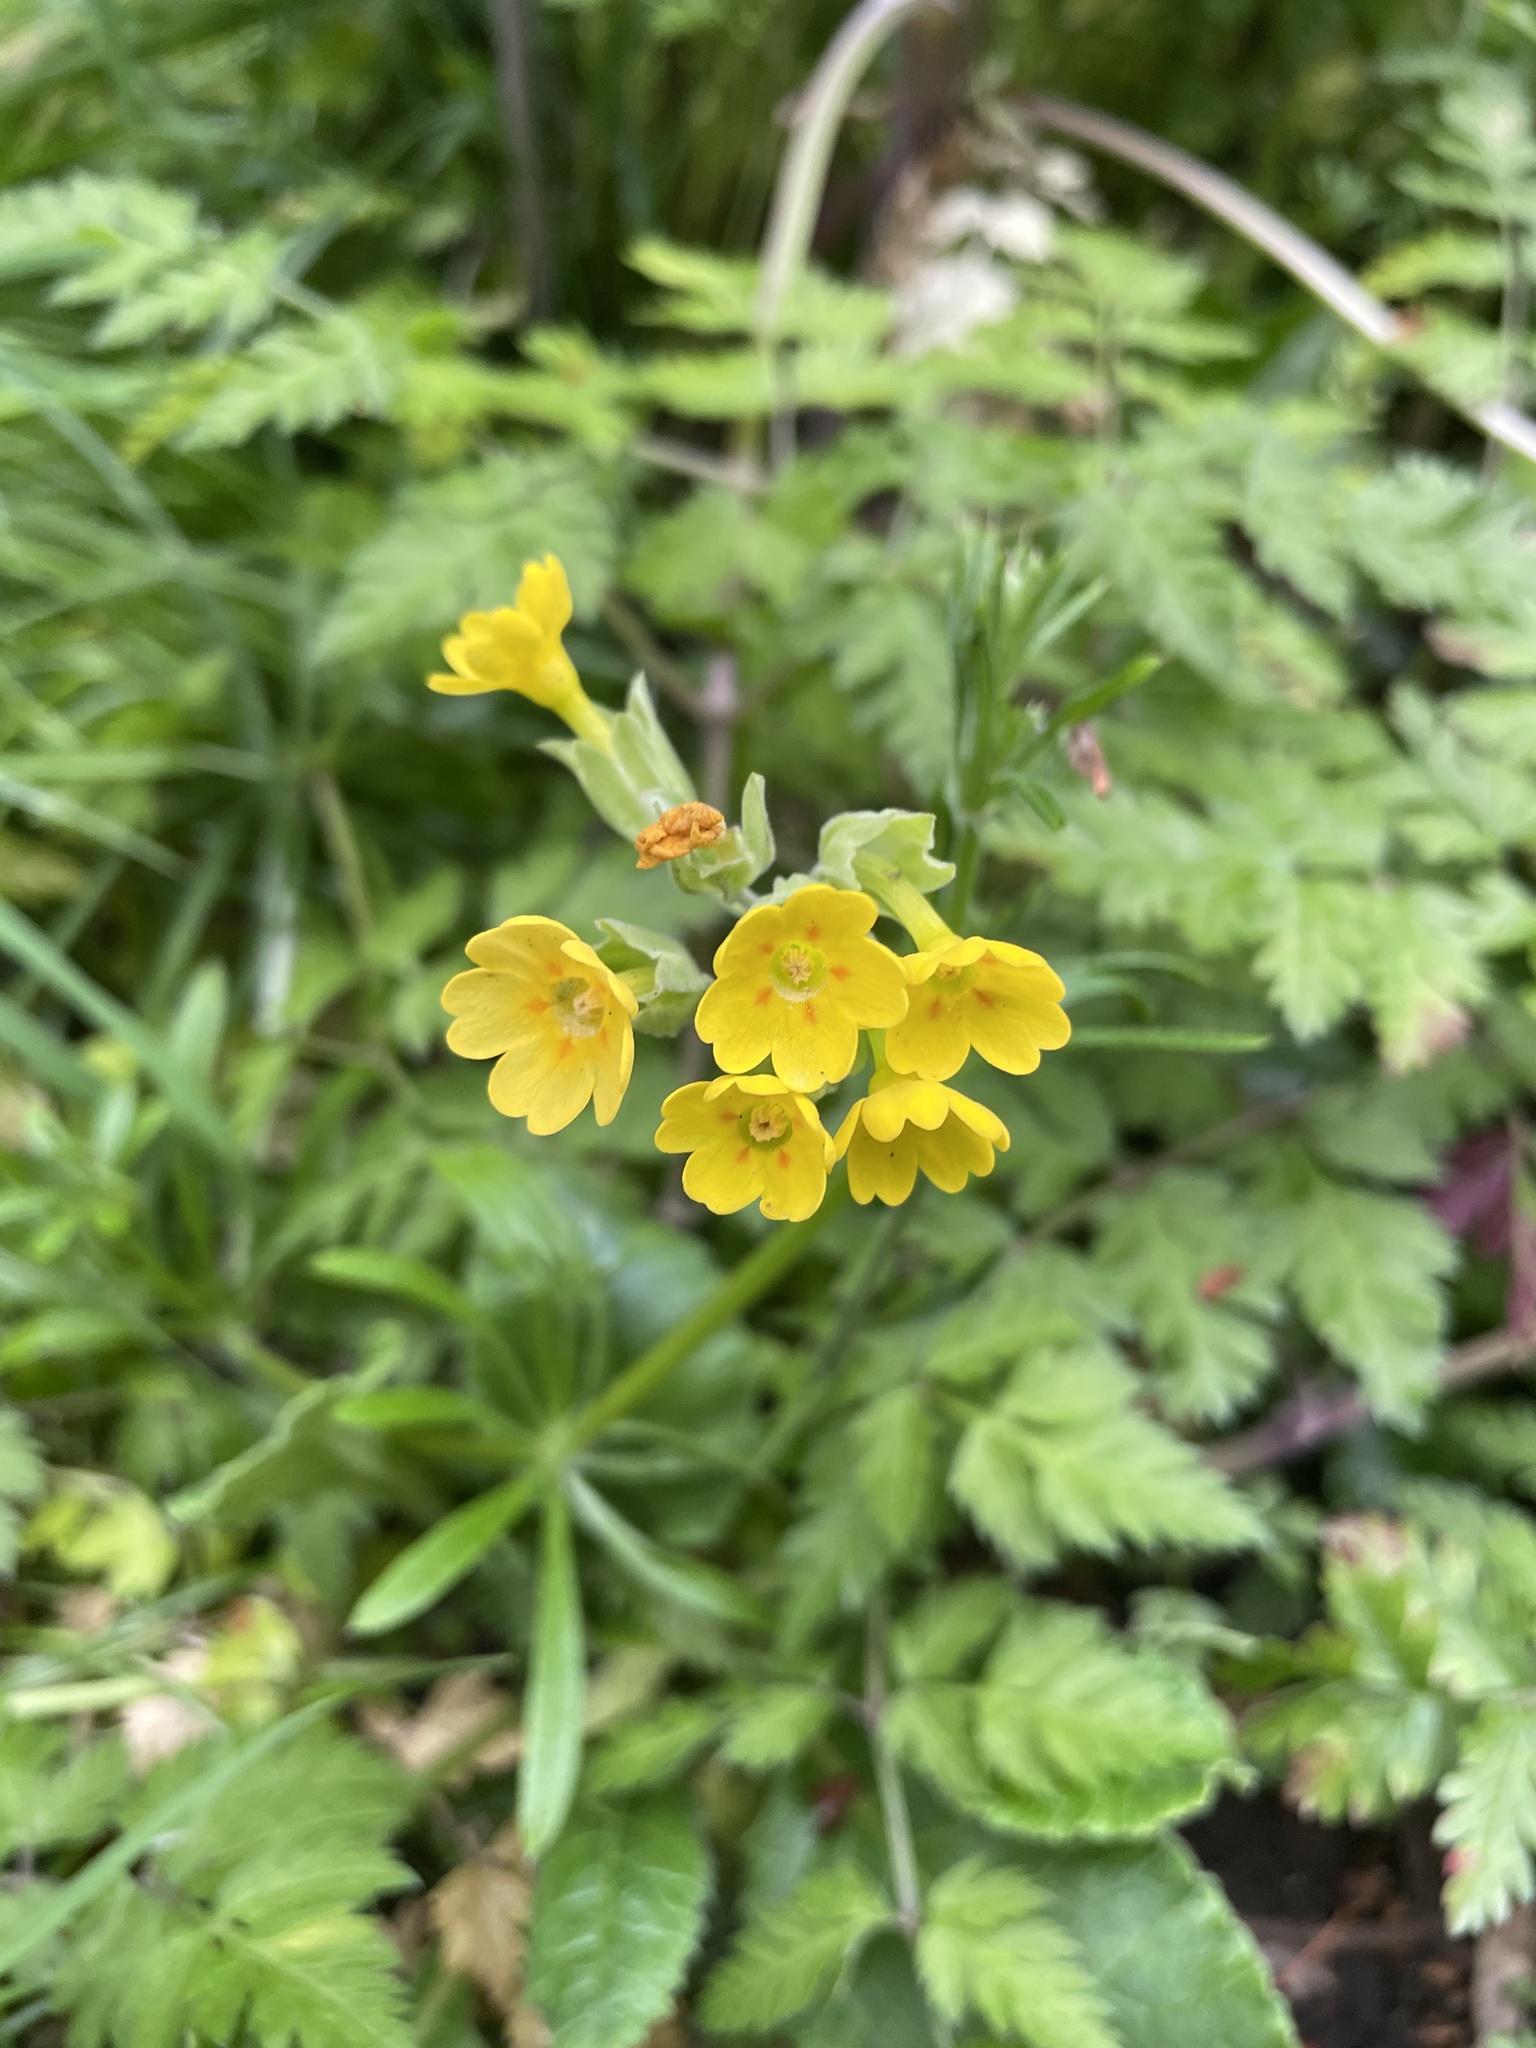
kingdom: Plantae
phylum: Tracheophyta
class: Magnoliopsida
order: Ericales
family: Primulaceae
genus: Primula
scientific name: Primula veris
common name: Cowslip
